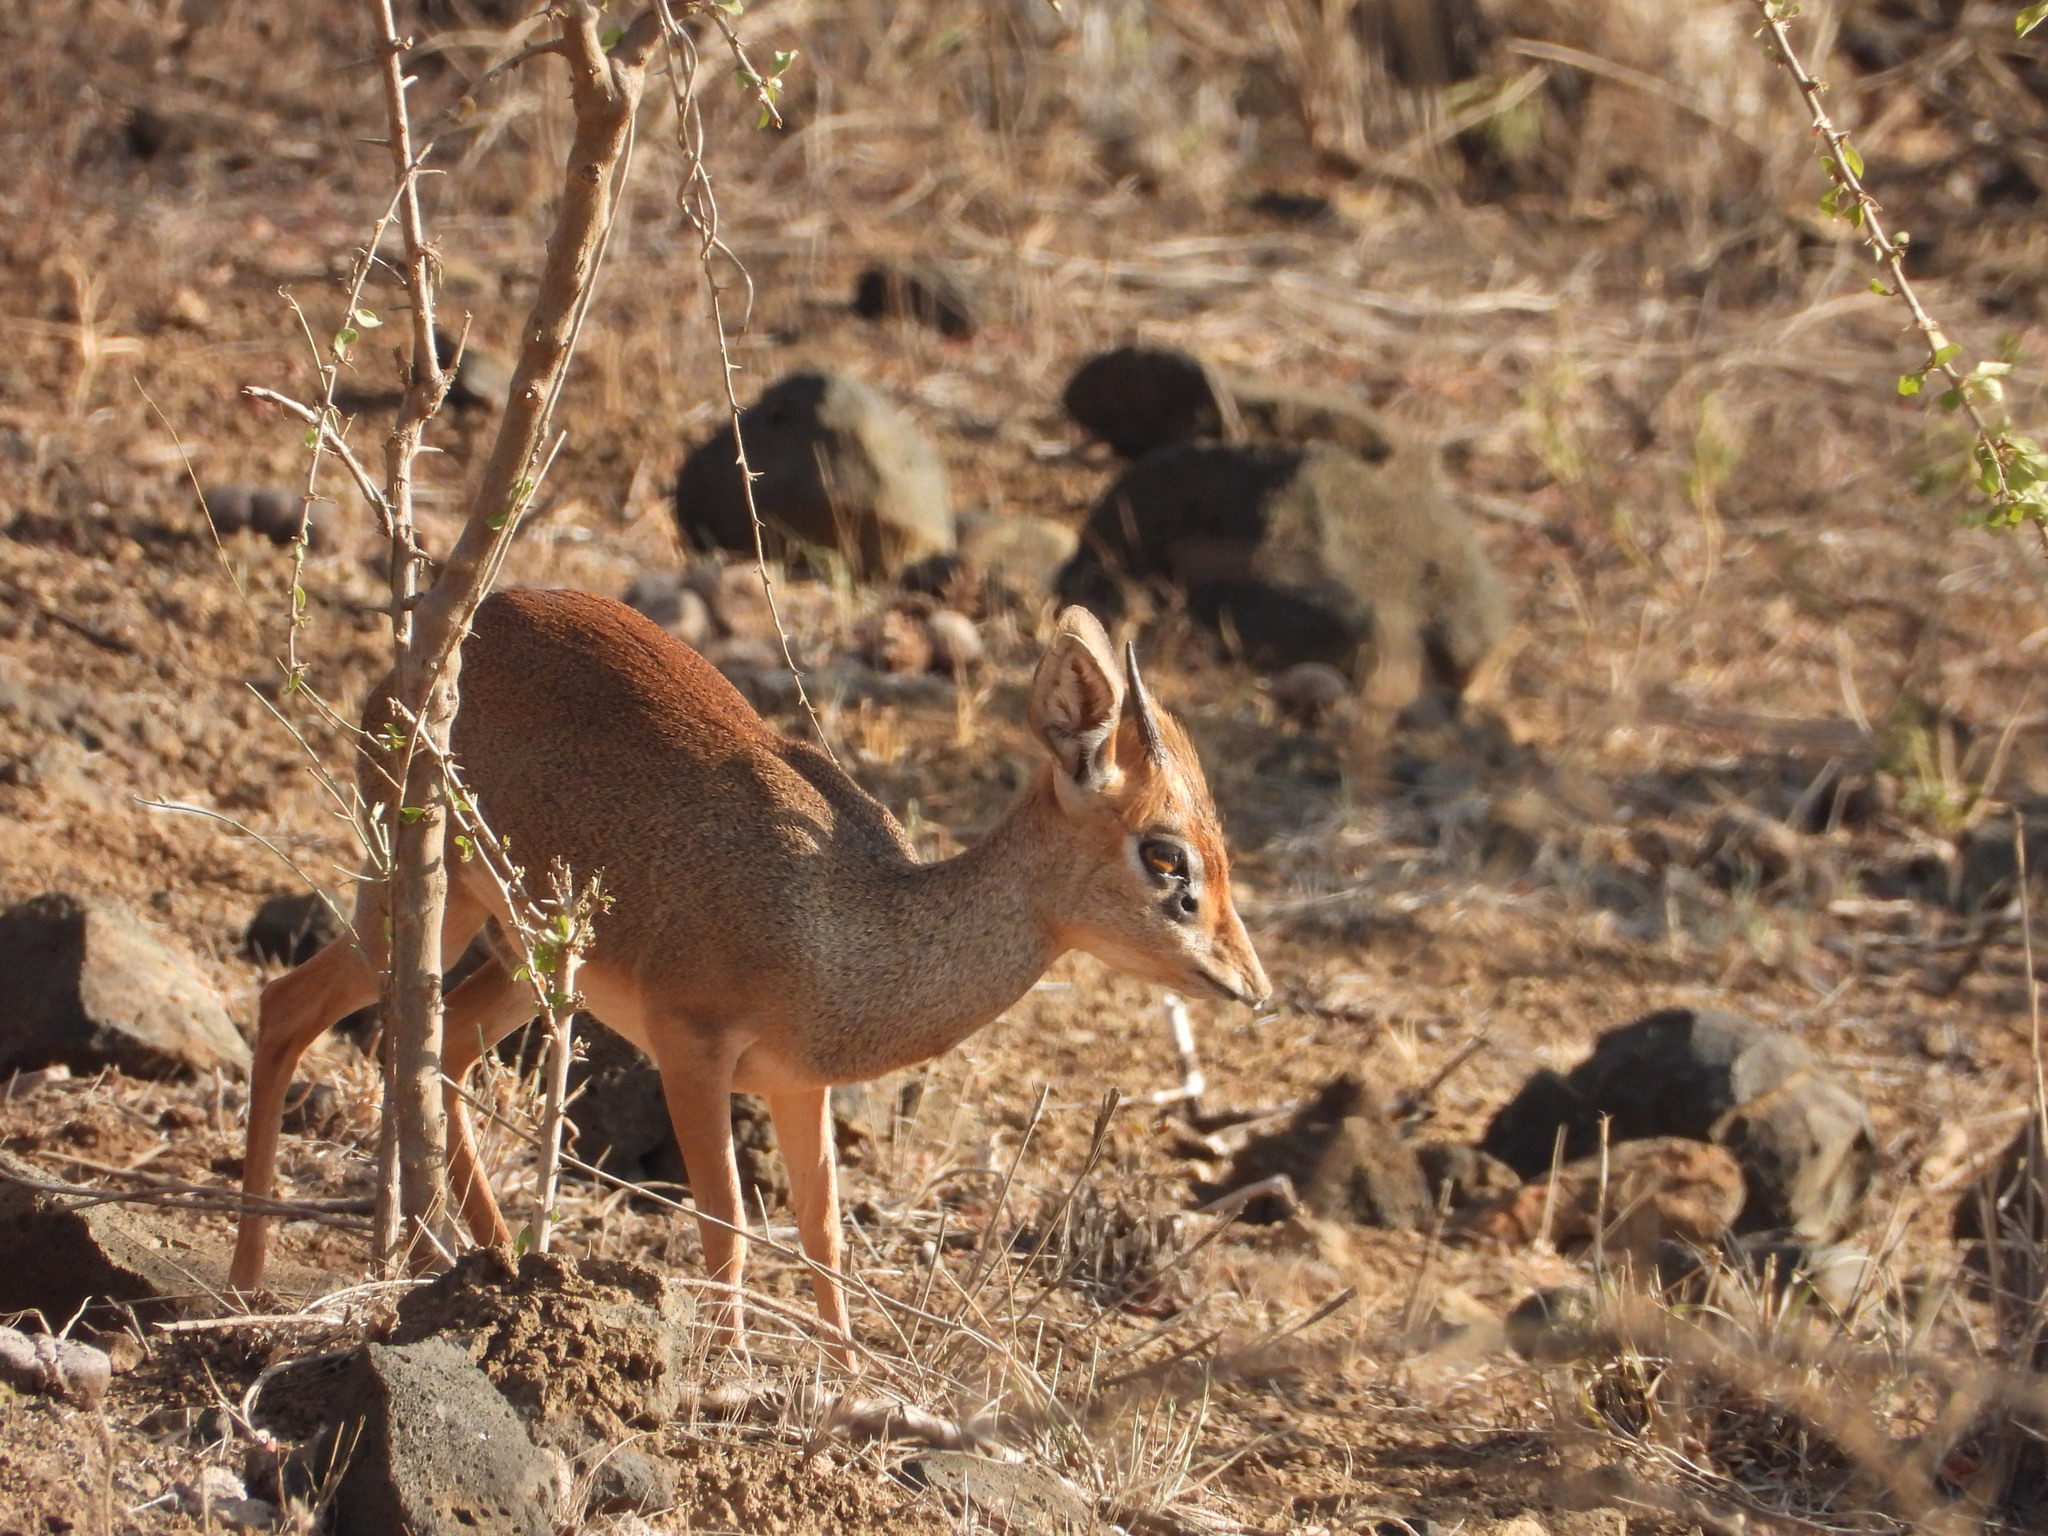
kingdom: Animalia
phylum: Chordata
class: Mammalia
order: Artiodactyla
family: Bovidae
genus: Madoqua
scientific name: Madoqua
